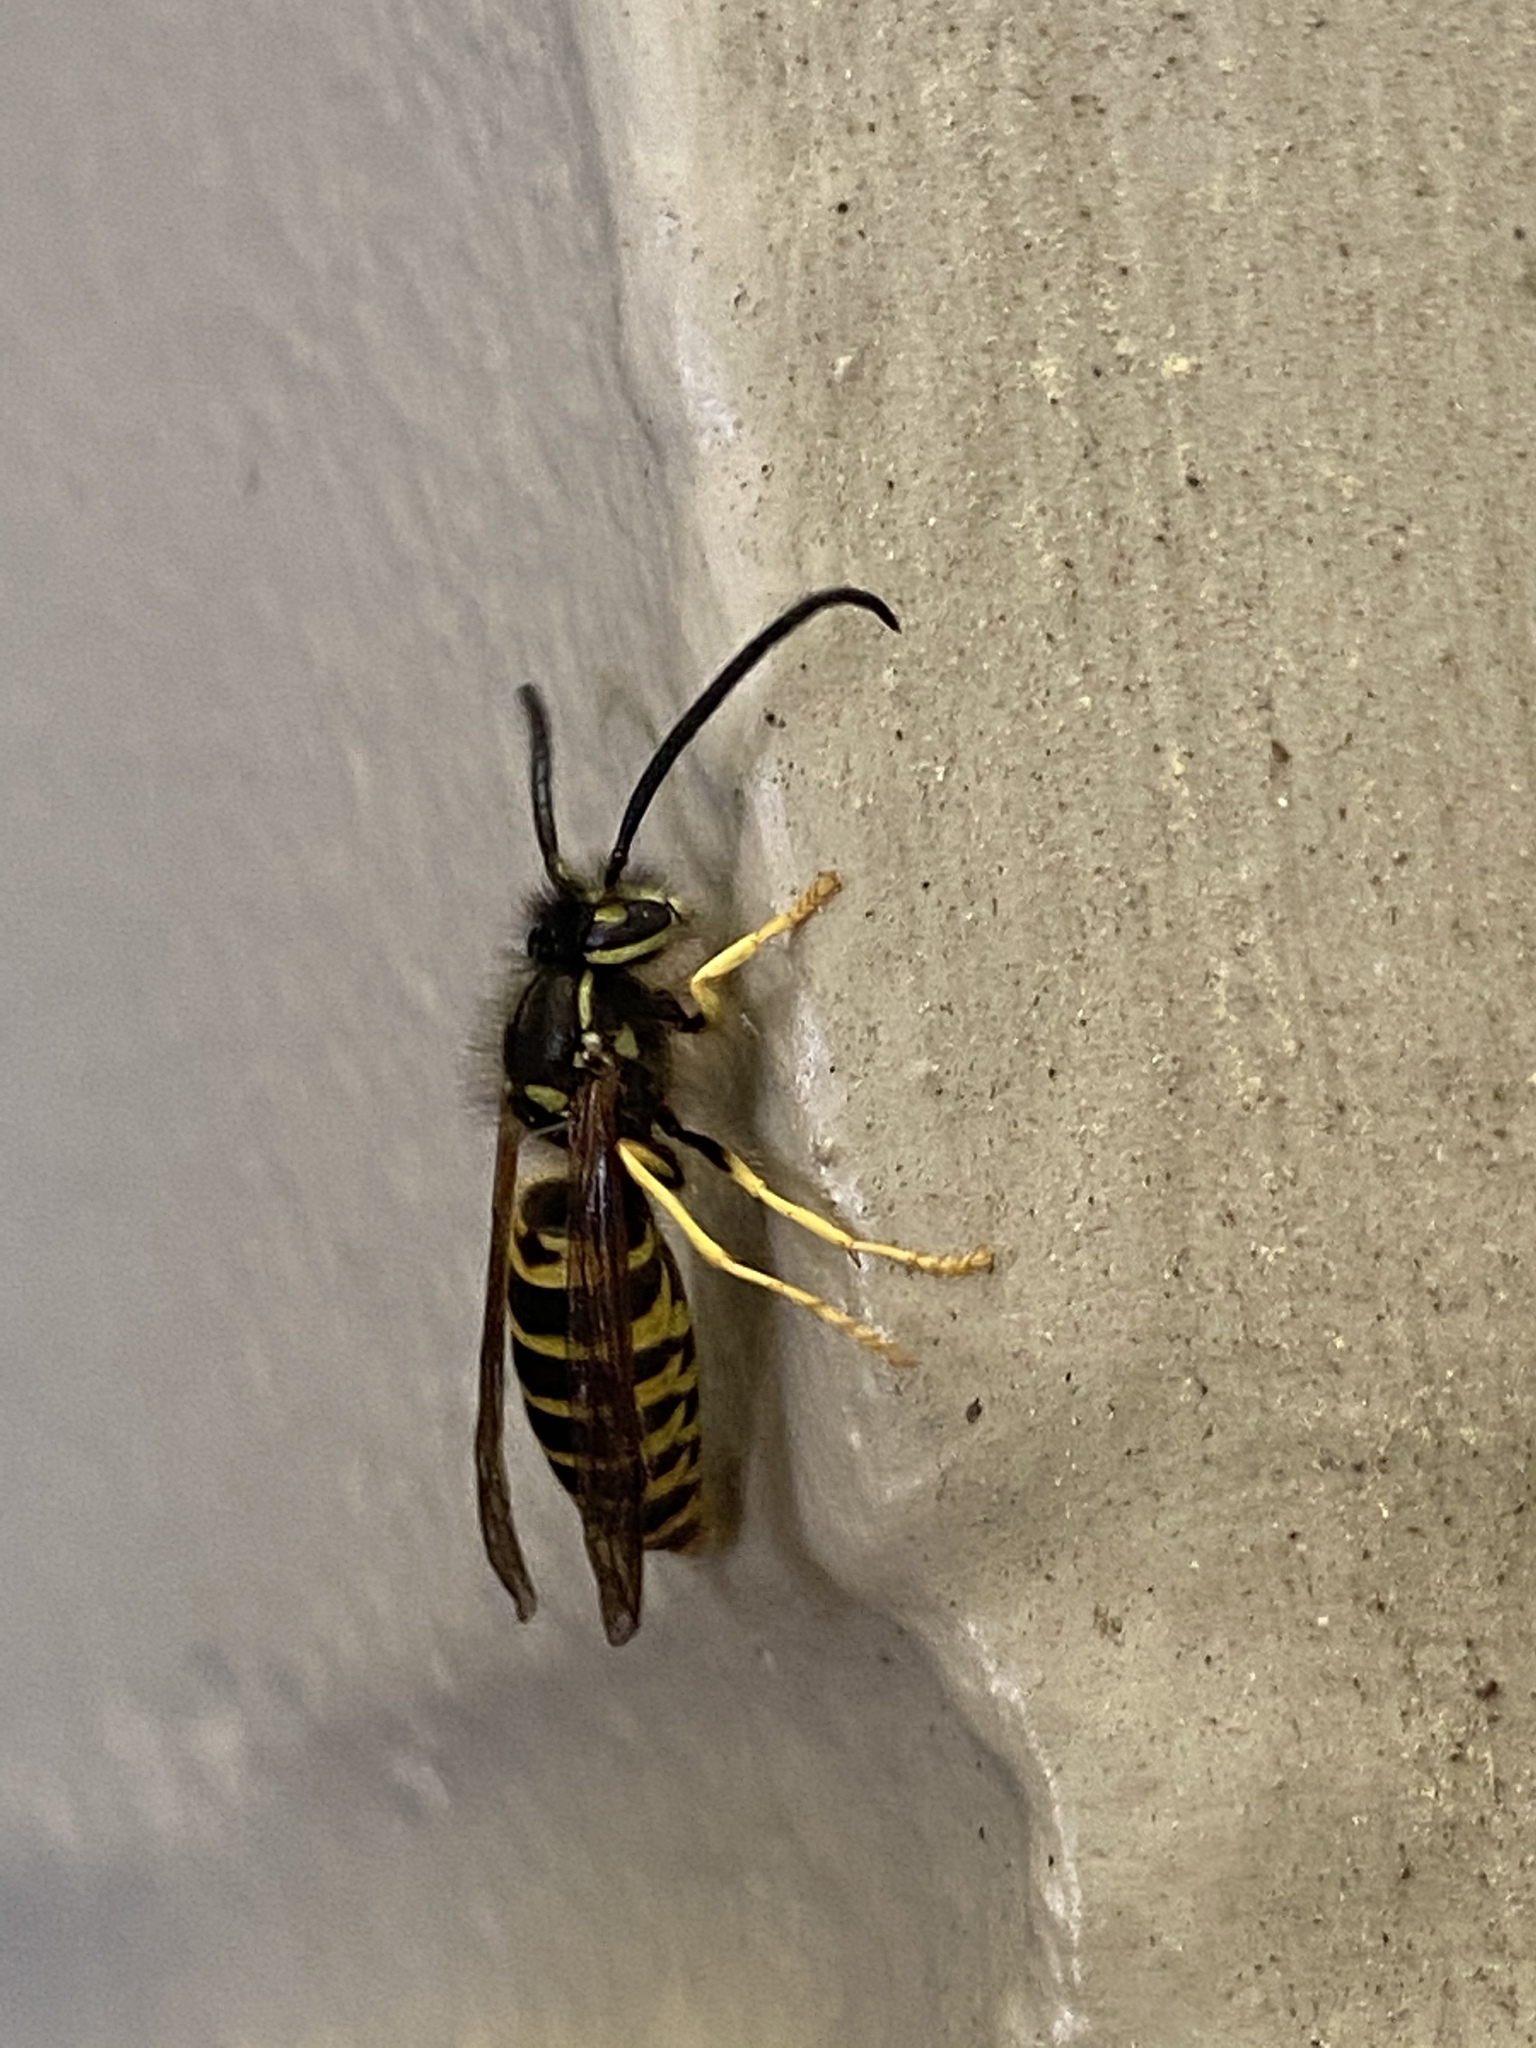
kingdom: Animalia
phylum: Arthropoda
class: Insecta
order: Hymenoptera
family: Vespidae
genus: Vespula
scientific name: Vespula maculifrons
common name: Eastern yellowjacket
